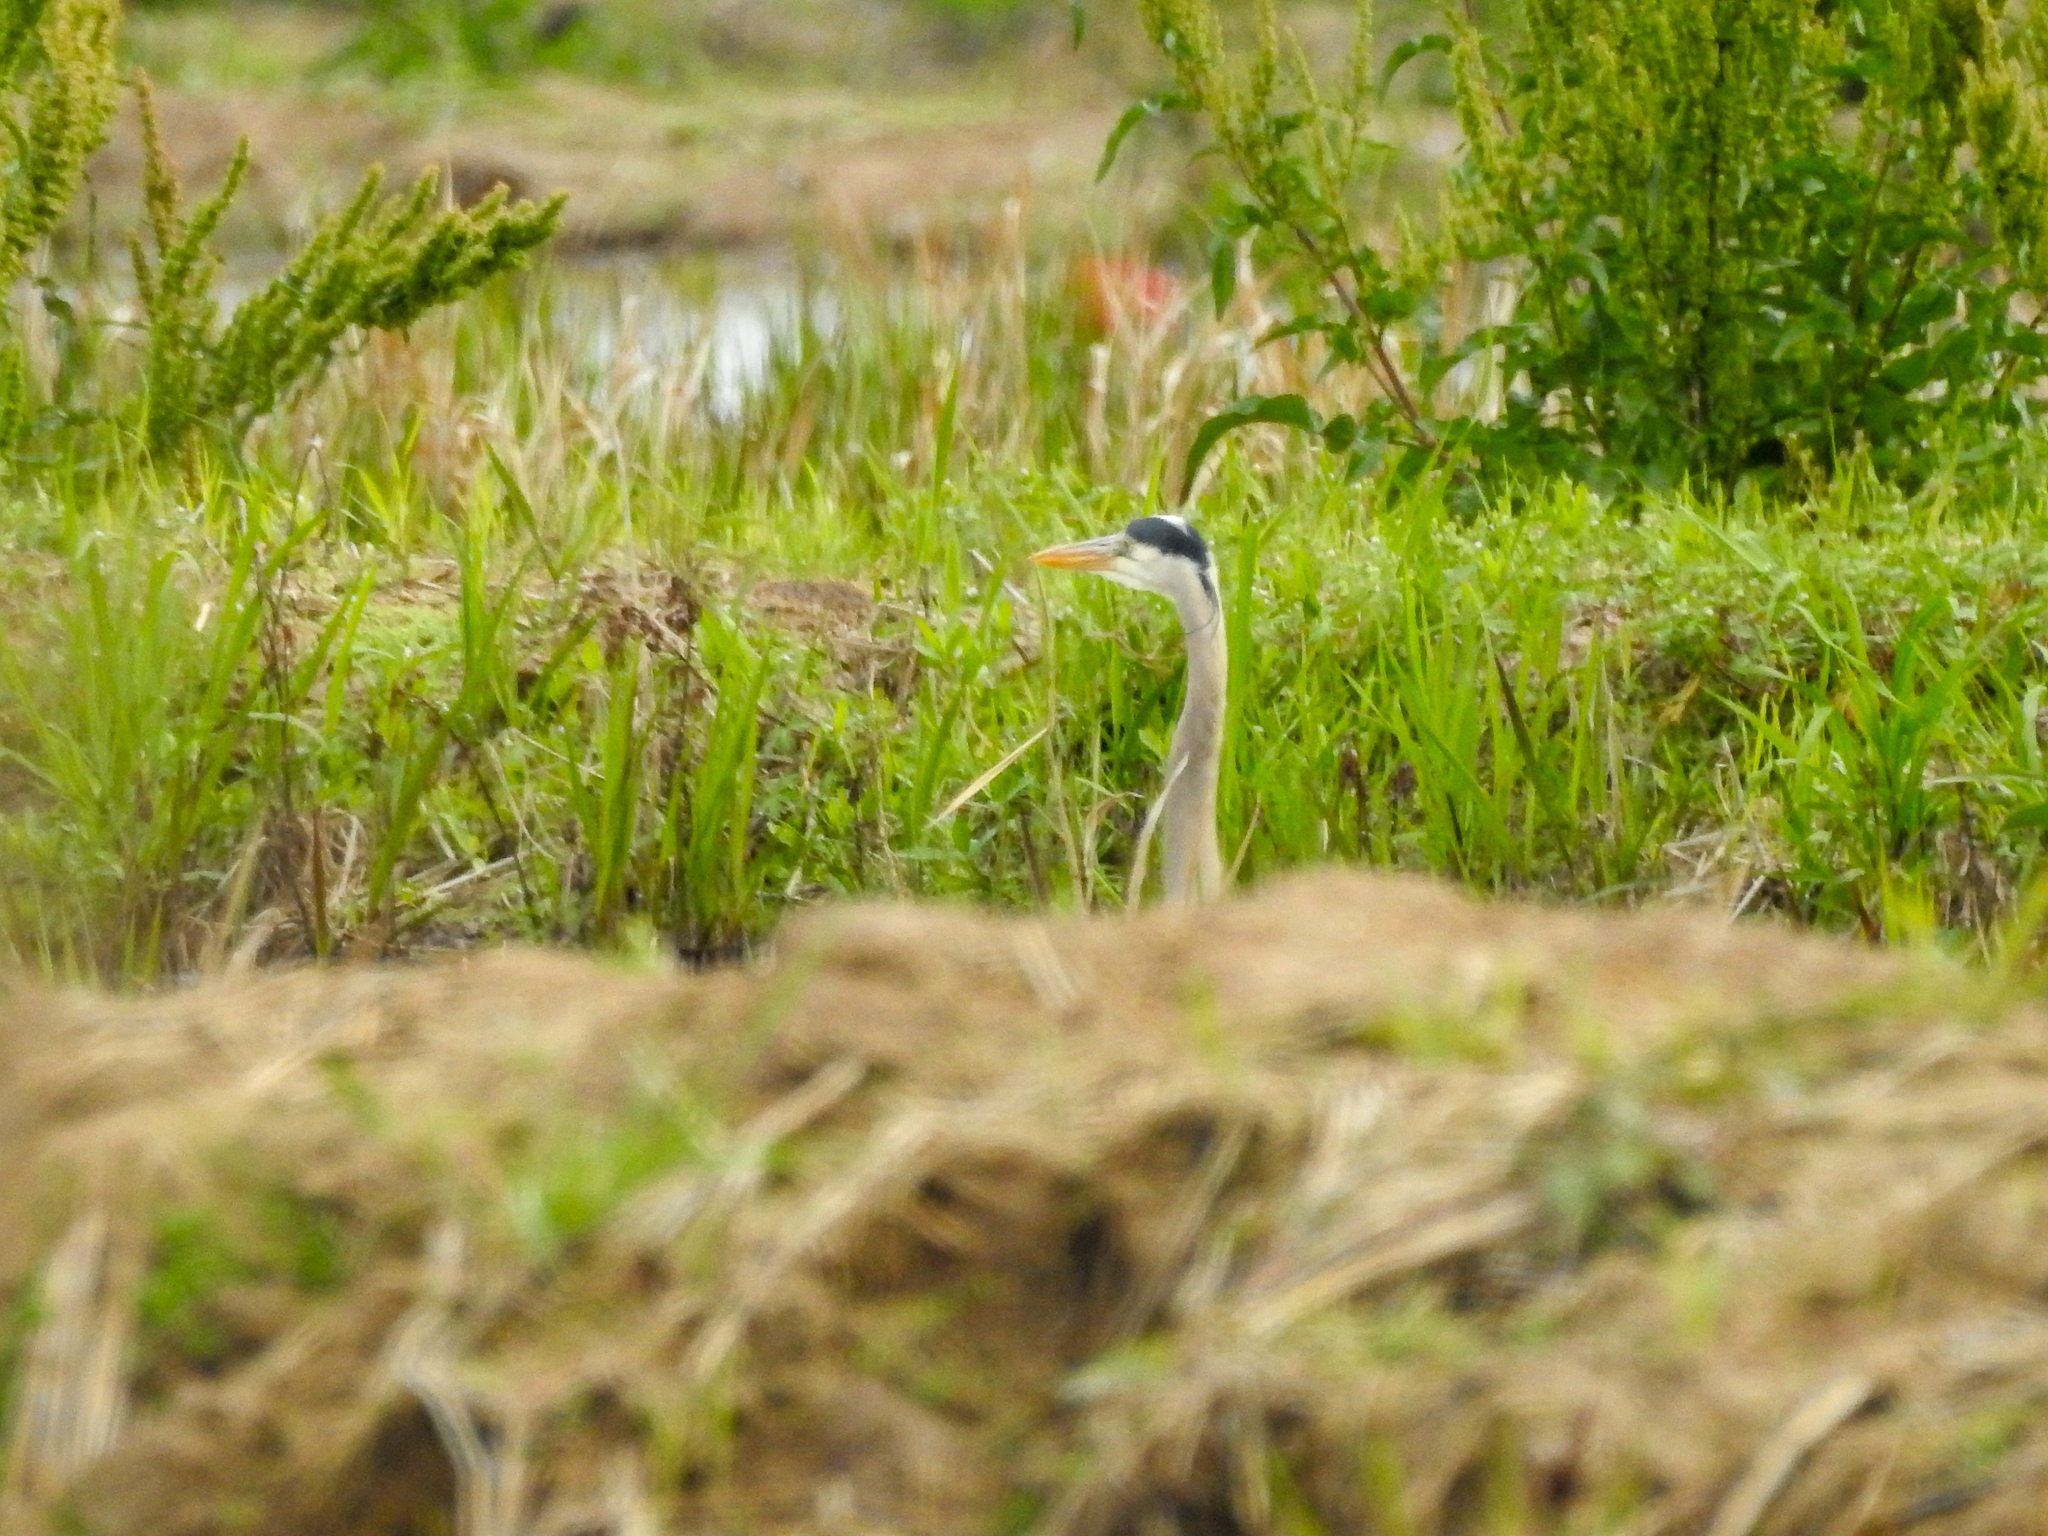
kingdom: Animalia
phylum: Chordata
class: Aves
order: Pelecaniformes
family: Ardeidae
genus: Ardea
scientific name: Ardea herodias
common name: Great blue heron
